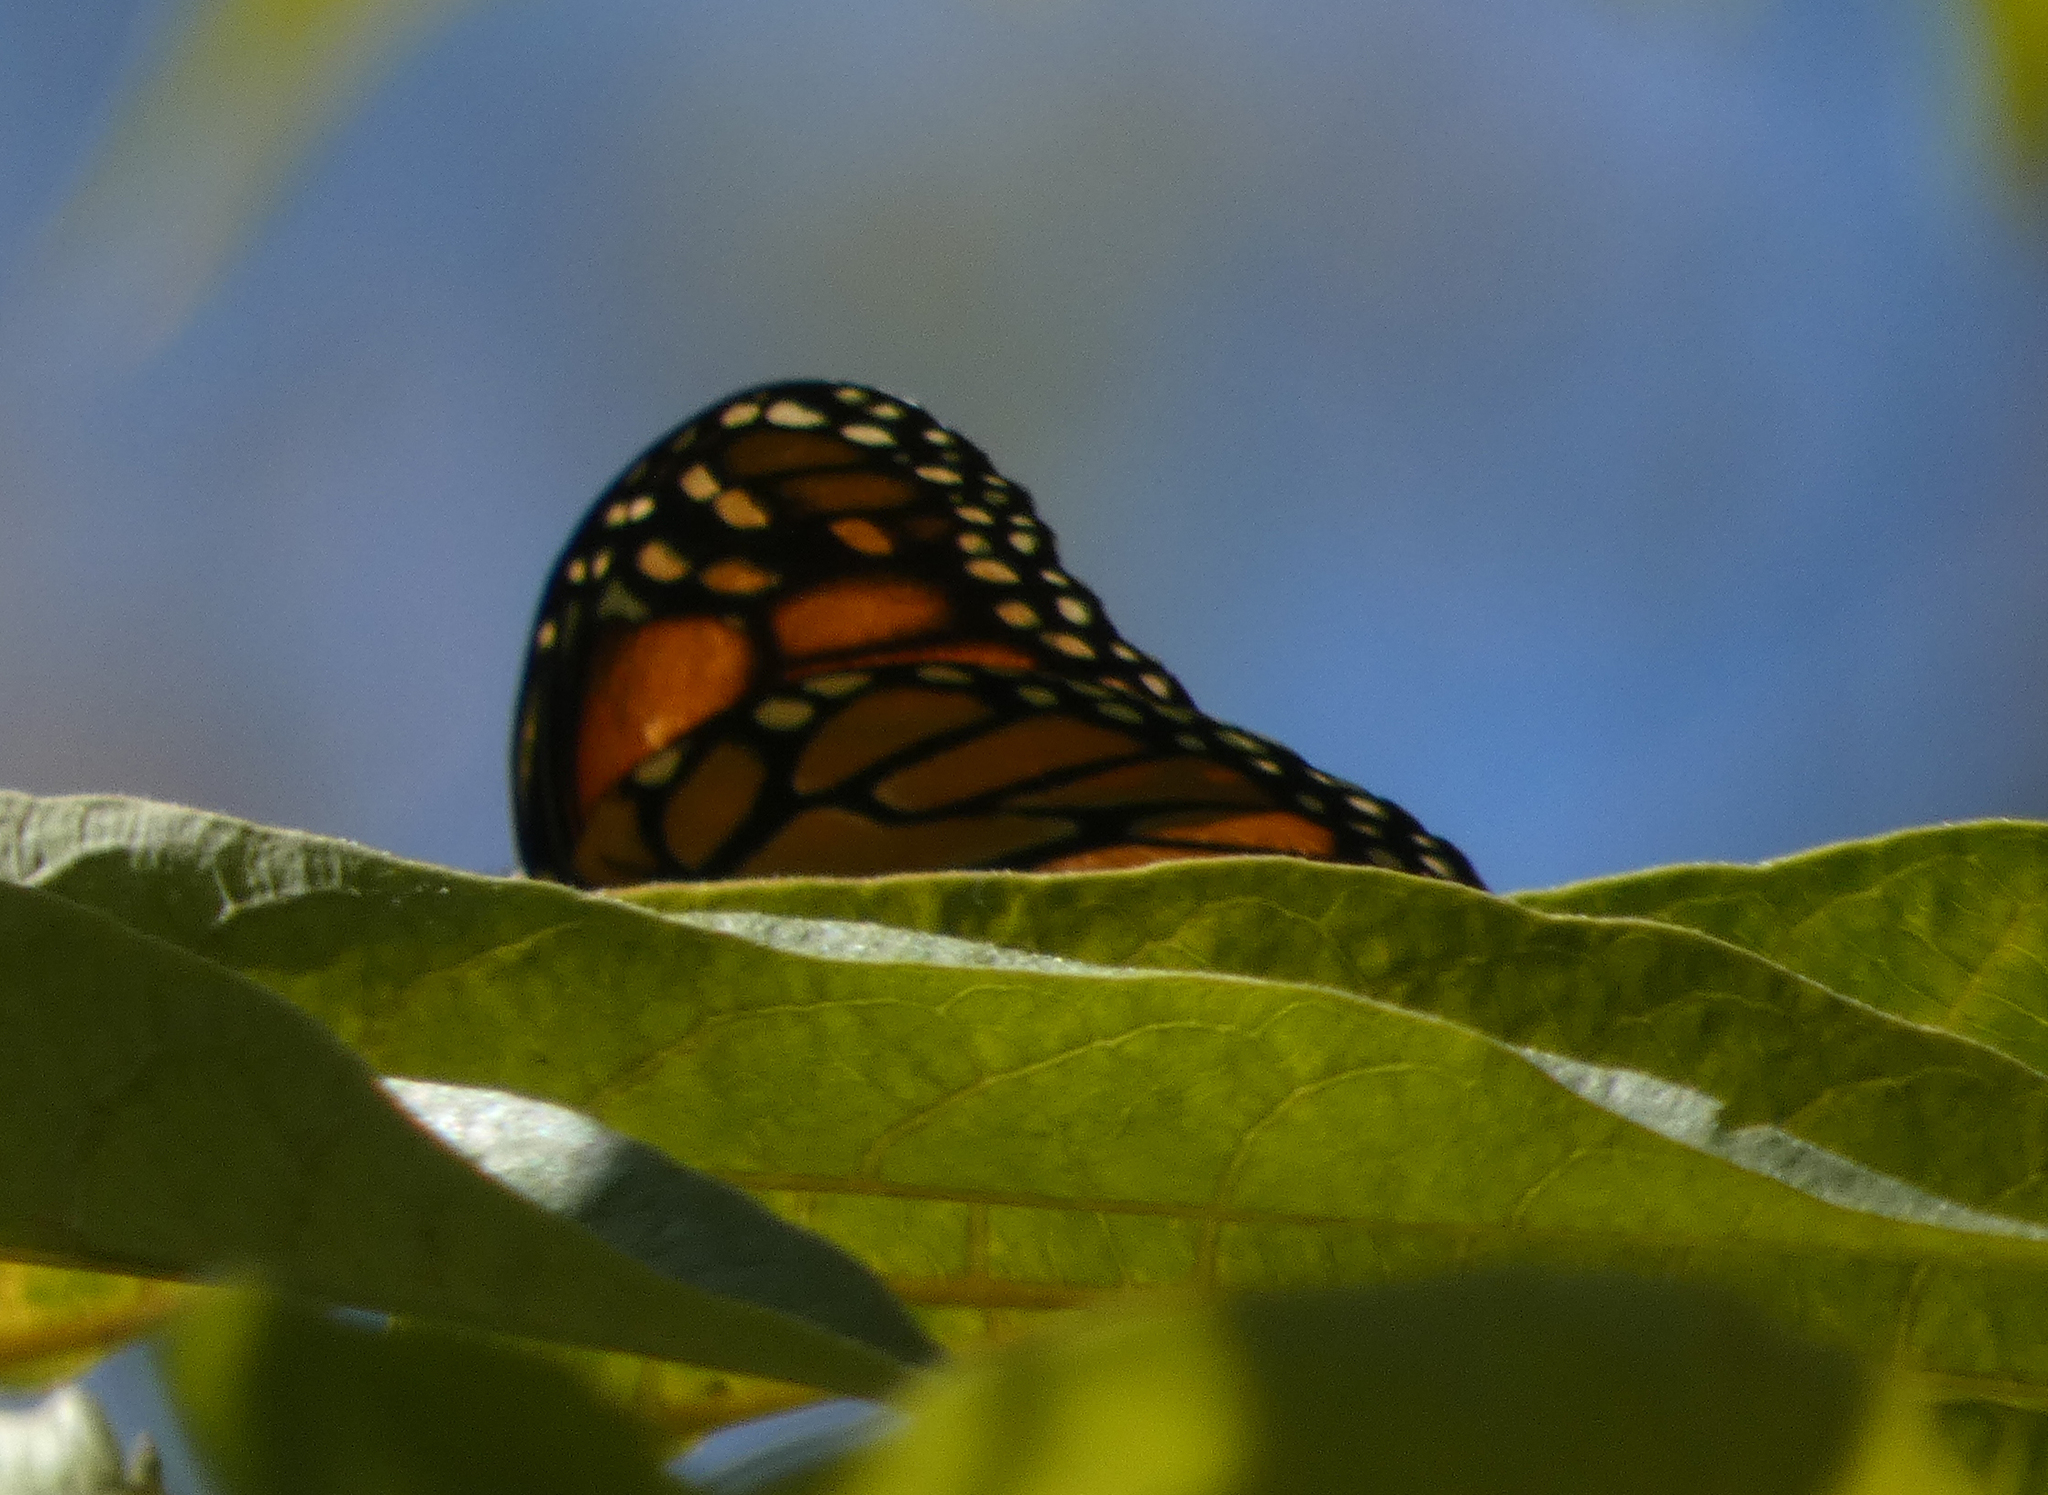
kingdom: Animalia
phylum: Arthropoda
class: Insecta
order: Lepidoptera
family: Nymphalidae
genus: Danaus
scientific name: Danaus plexippus
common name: Monarch
